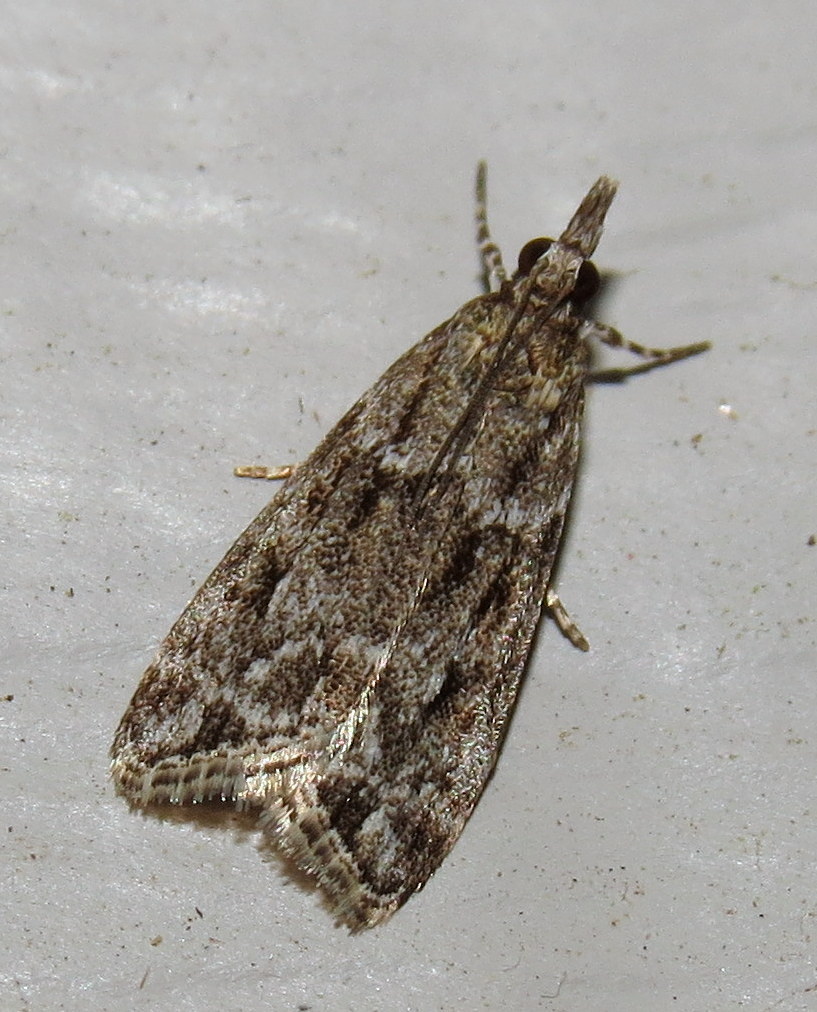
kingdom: Animalia
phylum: Arthropoda
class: Insecta
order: Lepidoptera
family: Crambidae
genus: Eudonia
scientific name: Eudonia heterosalis
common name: Mcdunnough's eudonia
